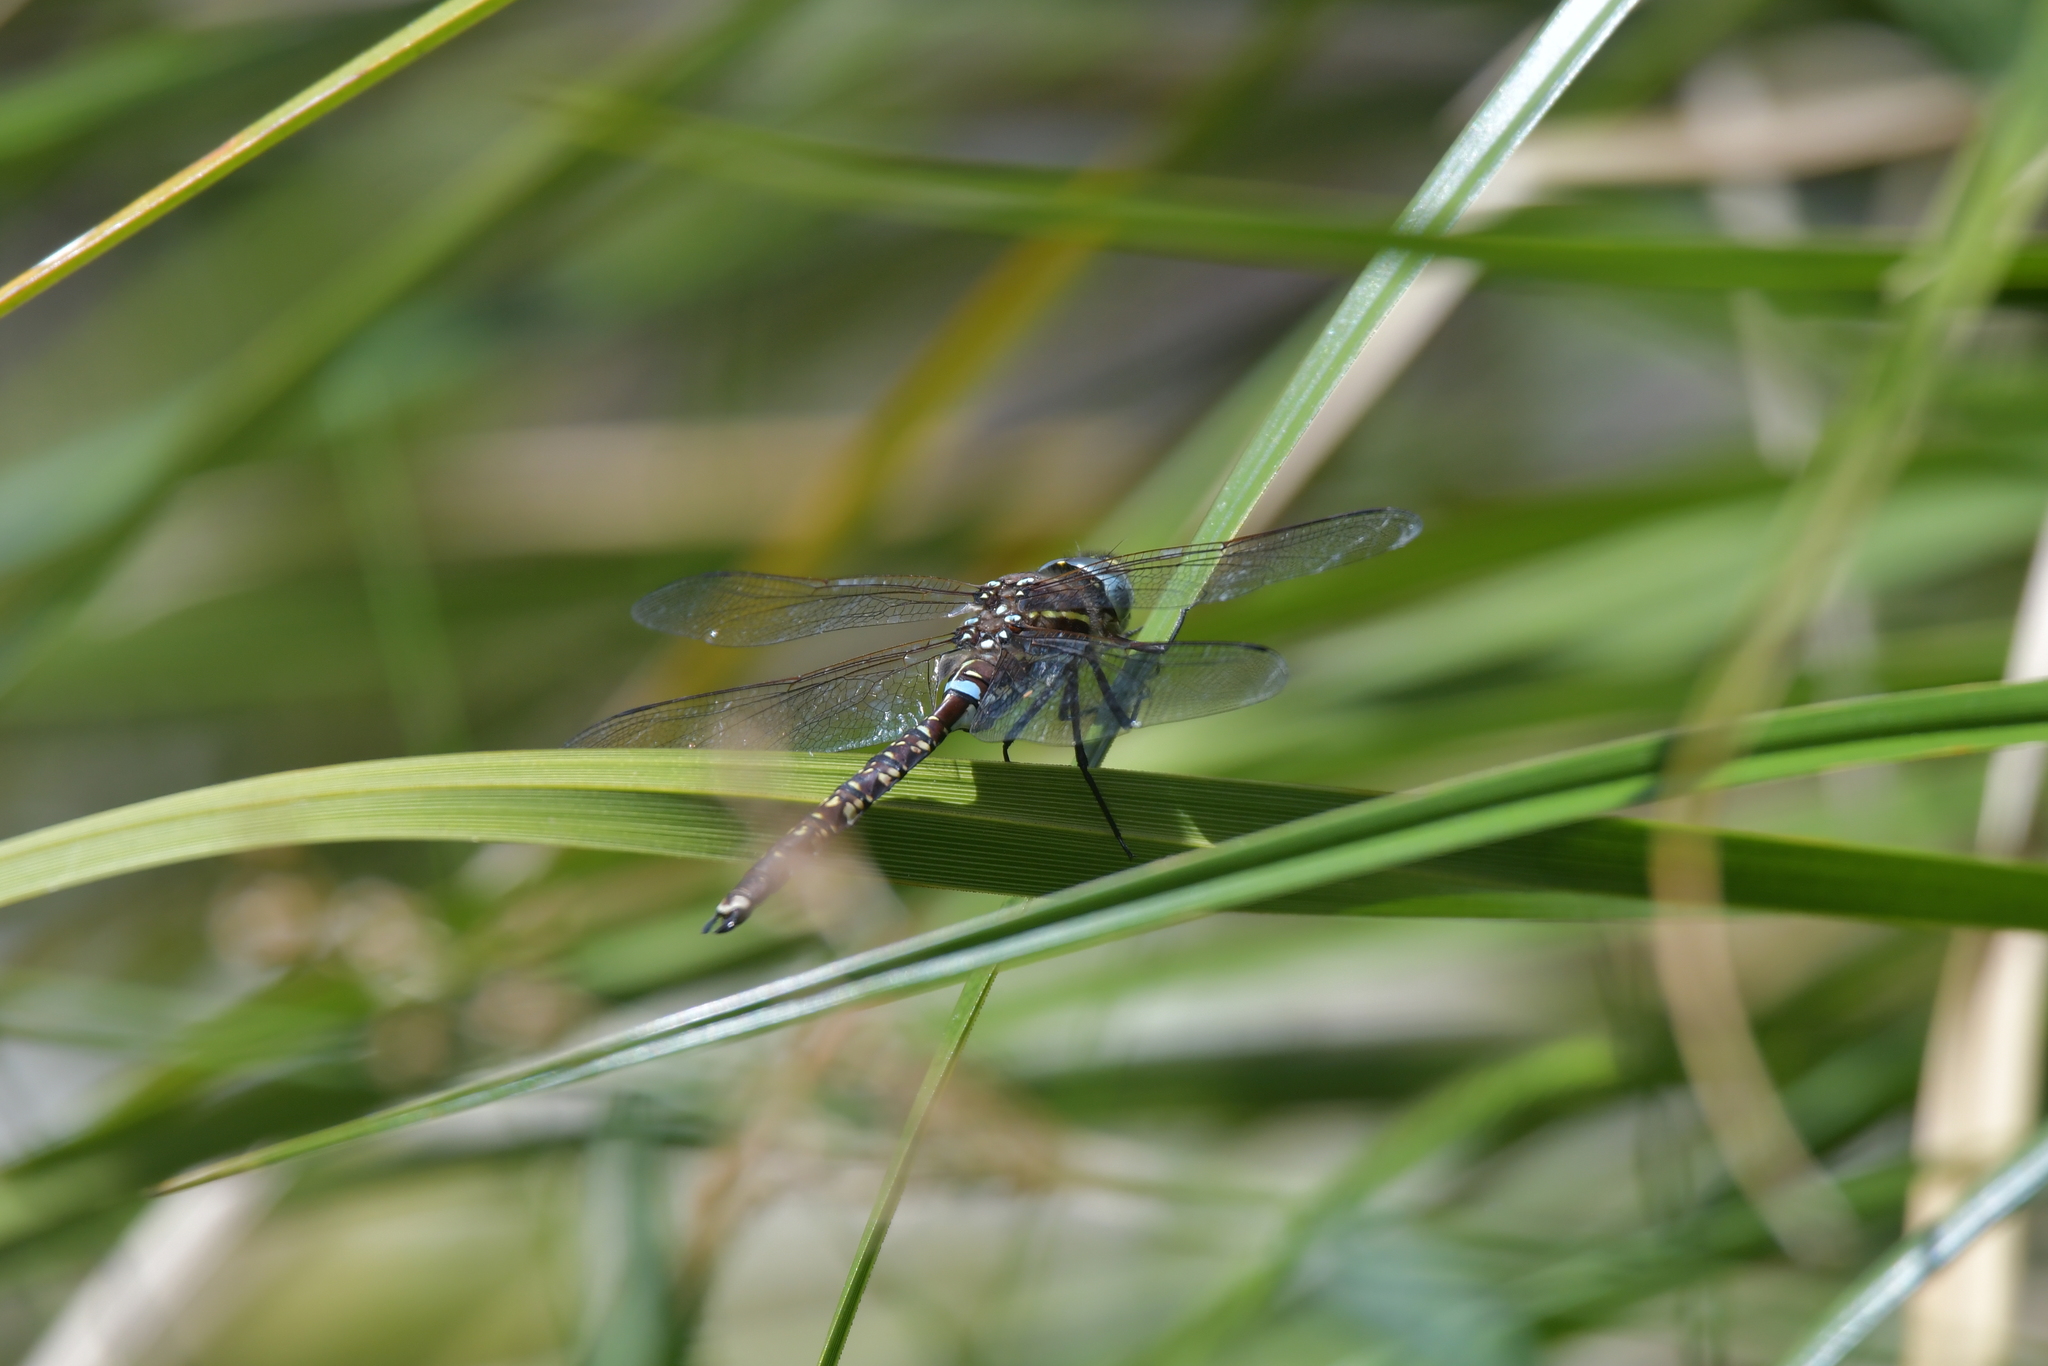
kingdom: Animalia
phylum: Arthropoda
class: Insecta
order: Odonata
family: Aeshnidae
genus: Aeshna
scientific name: Aeshna brevistyla
